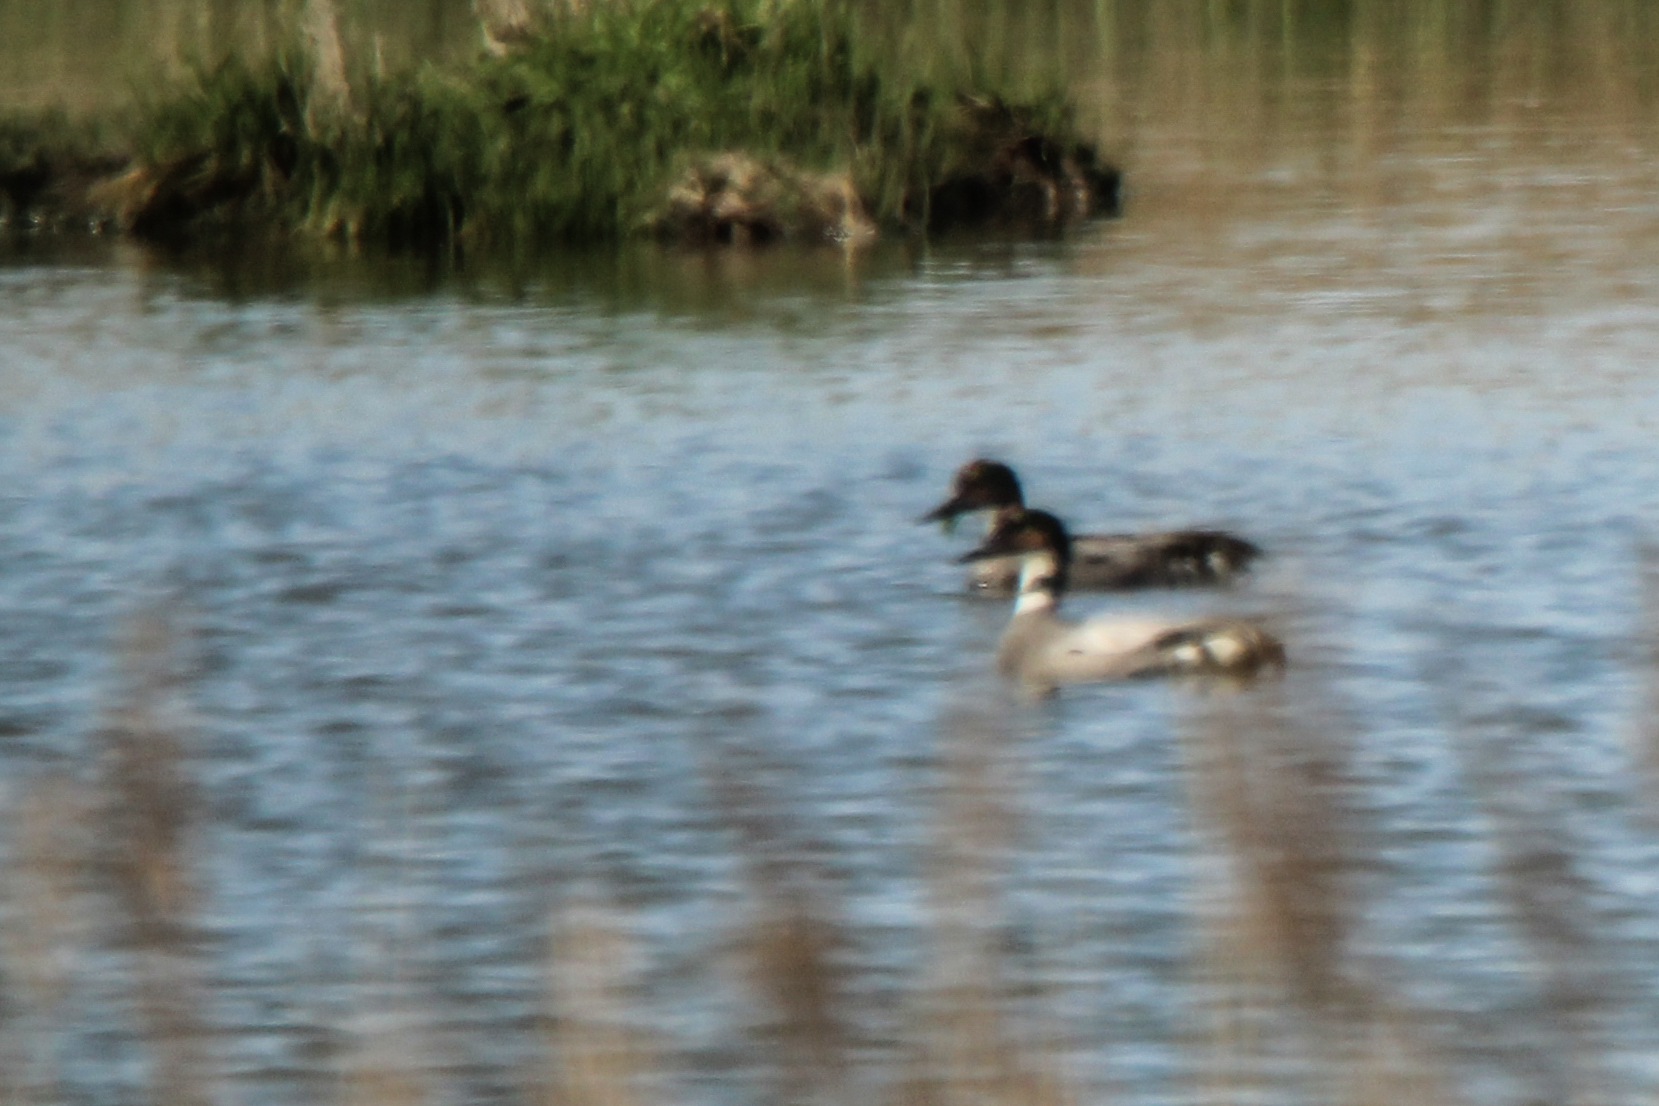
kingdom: Animalia
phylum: Chordata
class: Aves
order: Anseriformes
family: Anatidae
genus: Mareca
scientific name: Mareca falcata
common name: Falcated duck
